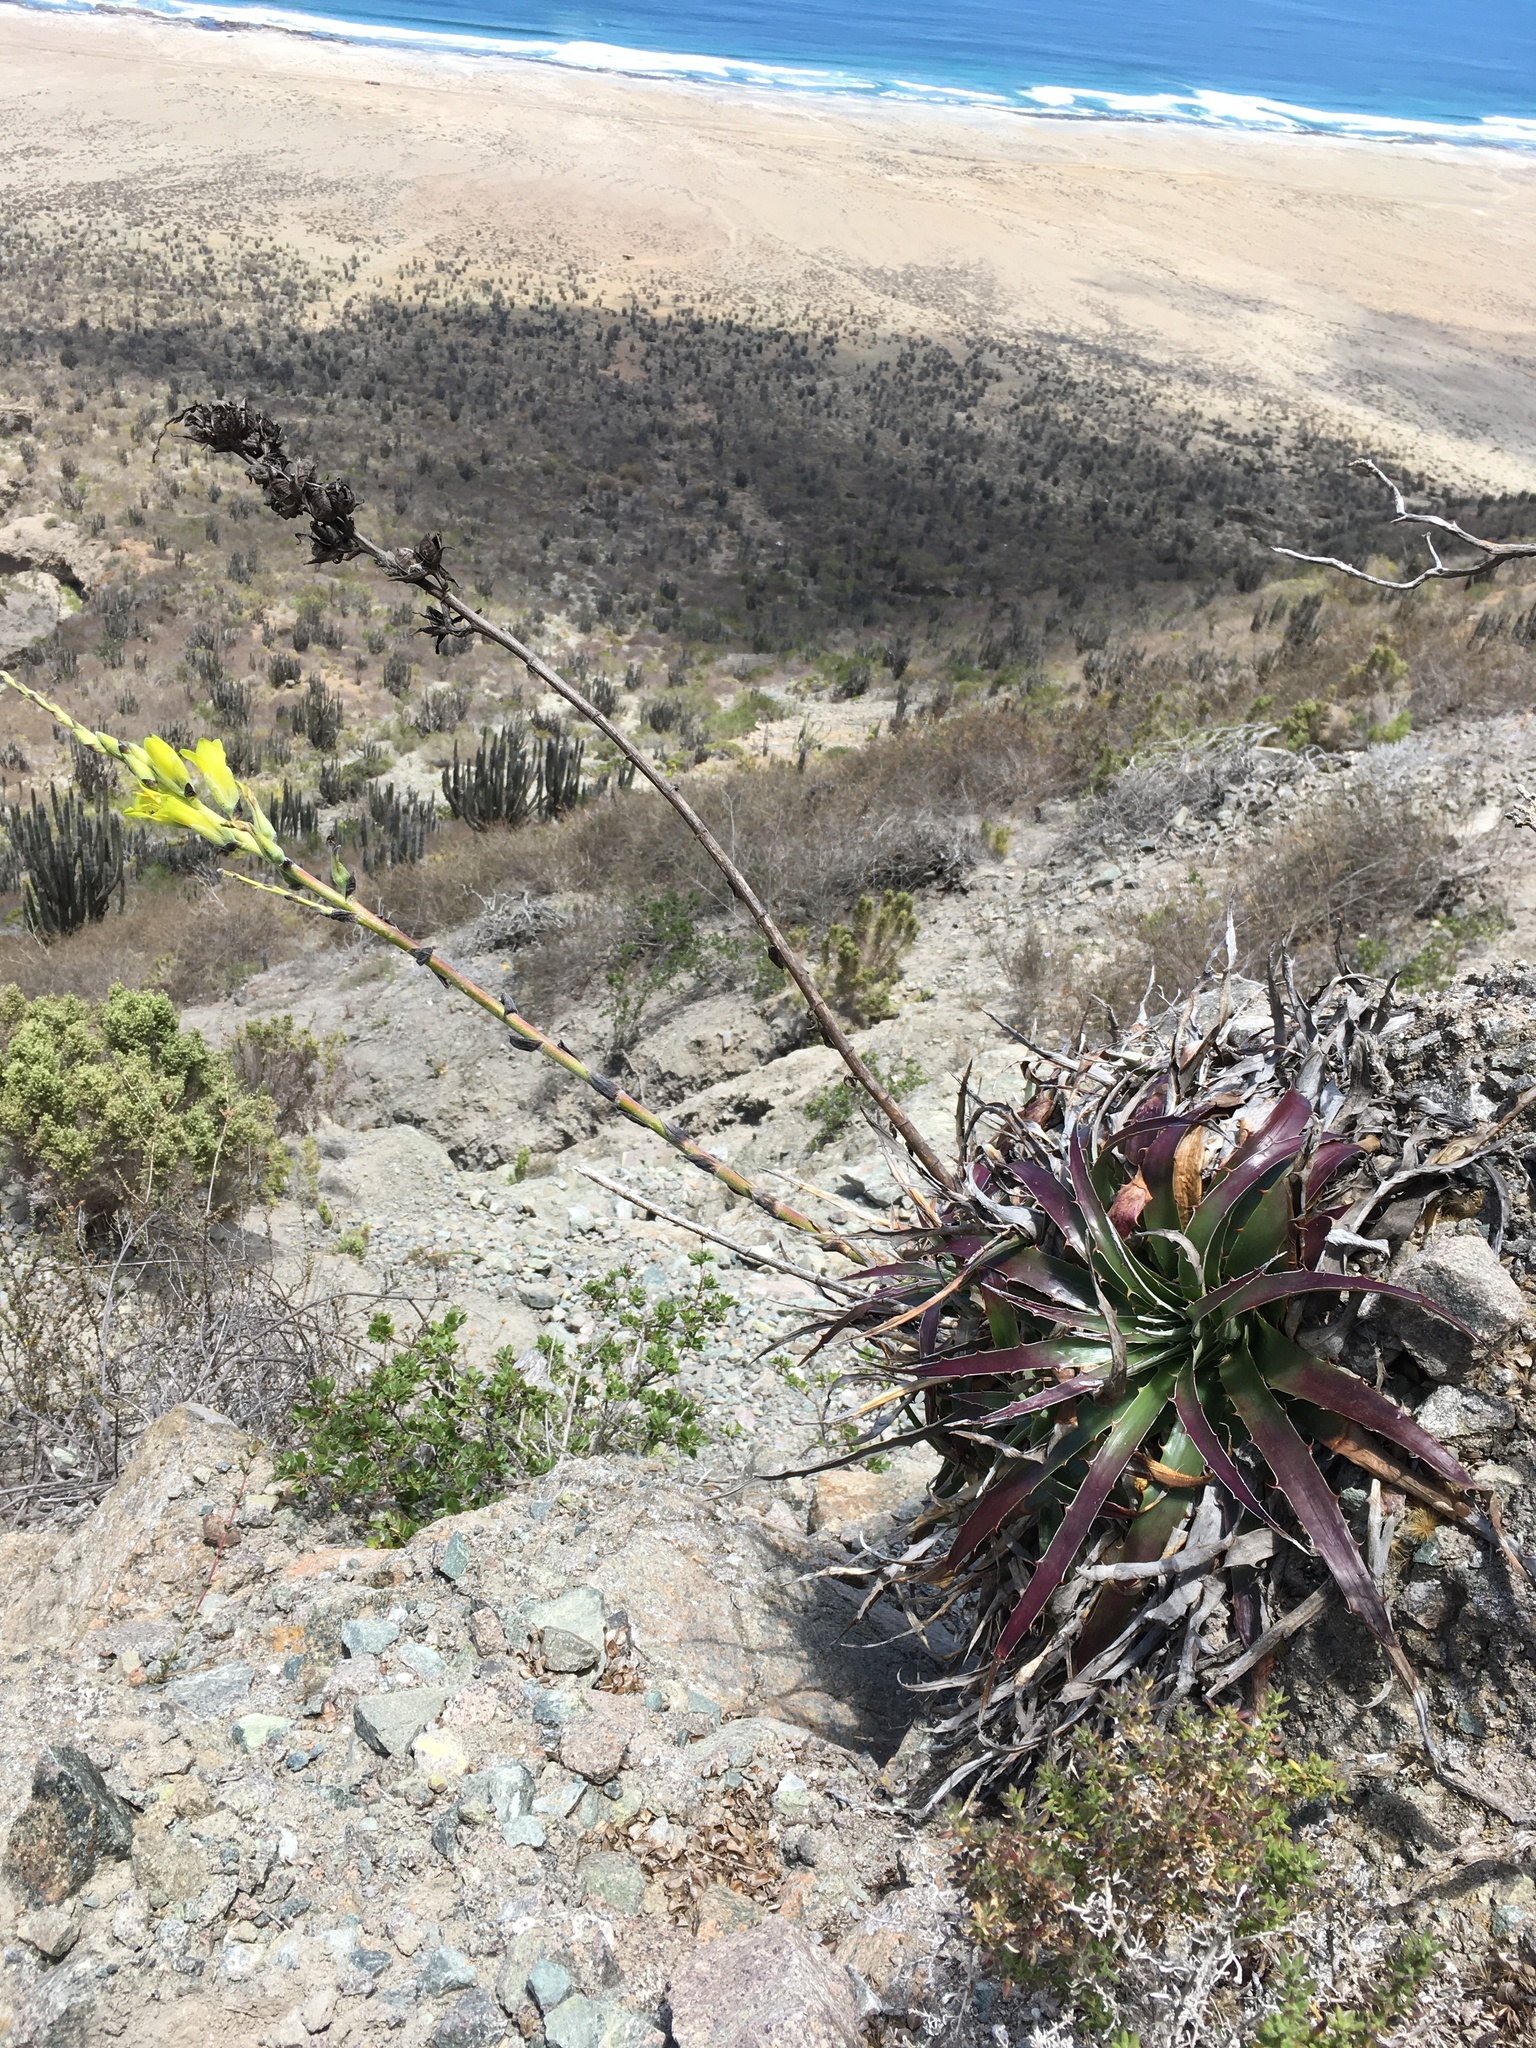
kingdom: Plantae
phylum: Tracheophyta
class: Liliopsida
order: Poales
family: Bromeliaceae
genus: Puya
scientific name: Puya boliviensis
